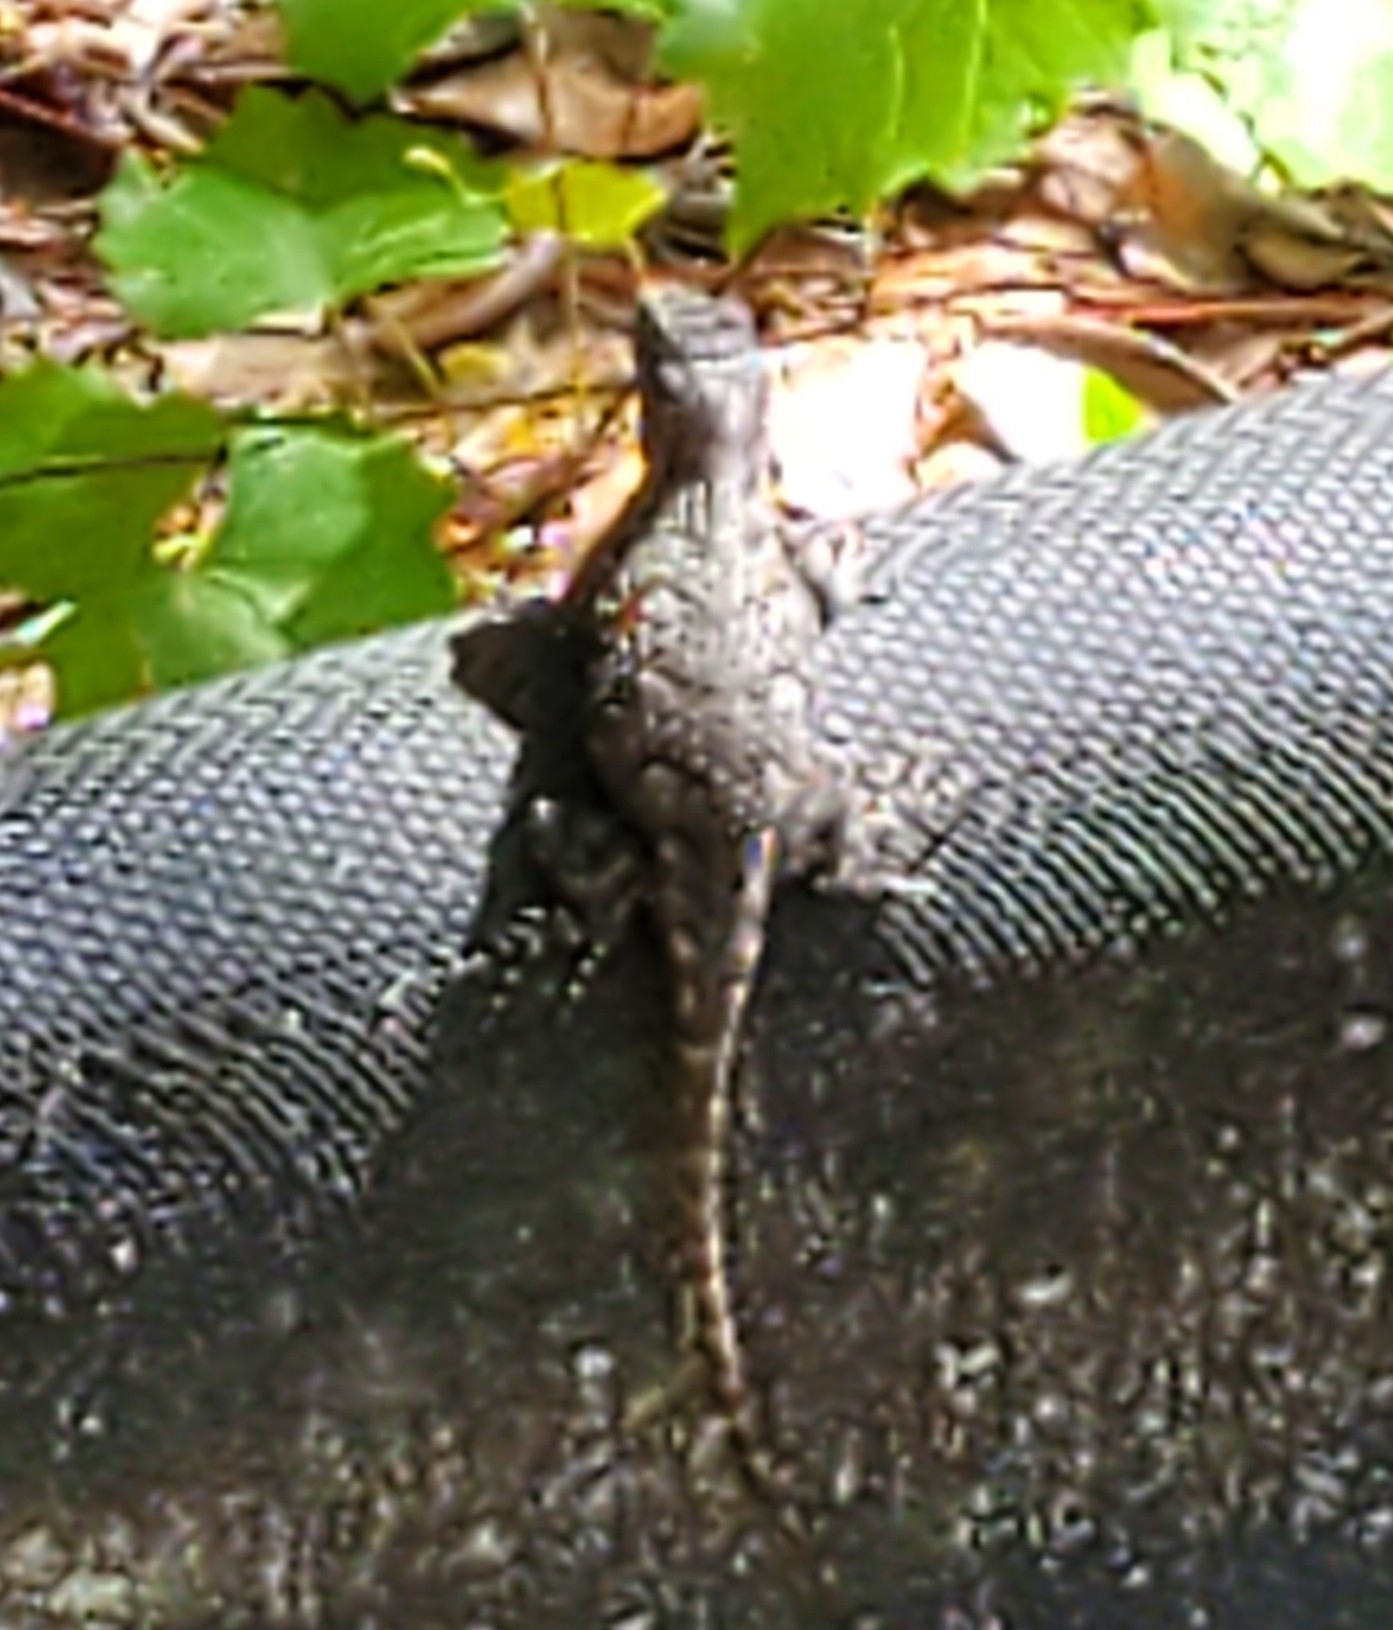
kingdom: Animalia
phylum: Chordata
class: Squamata
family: Phrynosomatidae
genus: Sceloporus
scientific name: Sceloporus undulatus
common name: Eastern fence lizard
